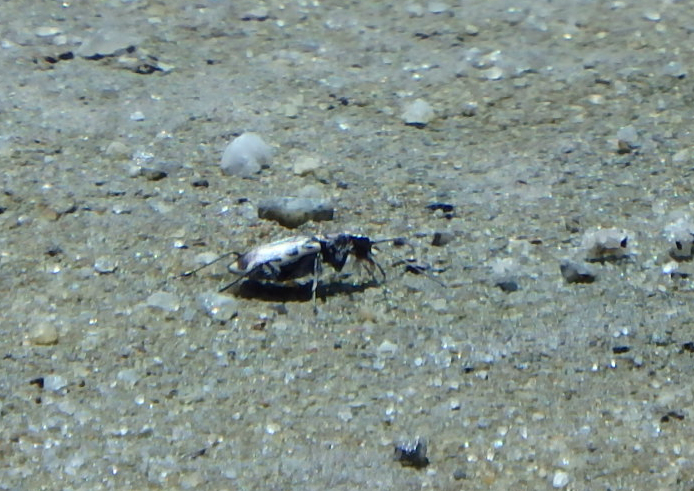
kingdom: Animalia
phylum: Arthropoda
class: Insecta
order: Coleoptera
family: Carabidae
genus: Cicindela
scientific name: Cicindela hirticollis
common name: Hairy-necked tiger beetle
